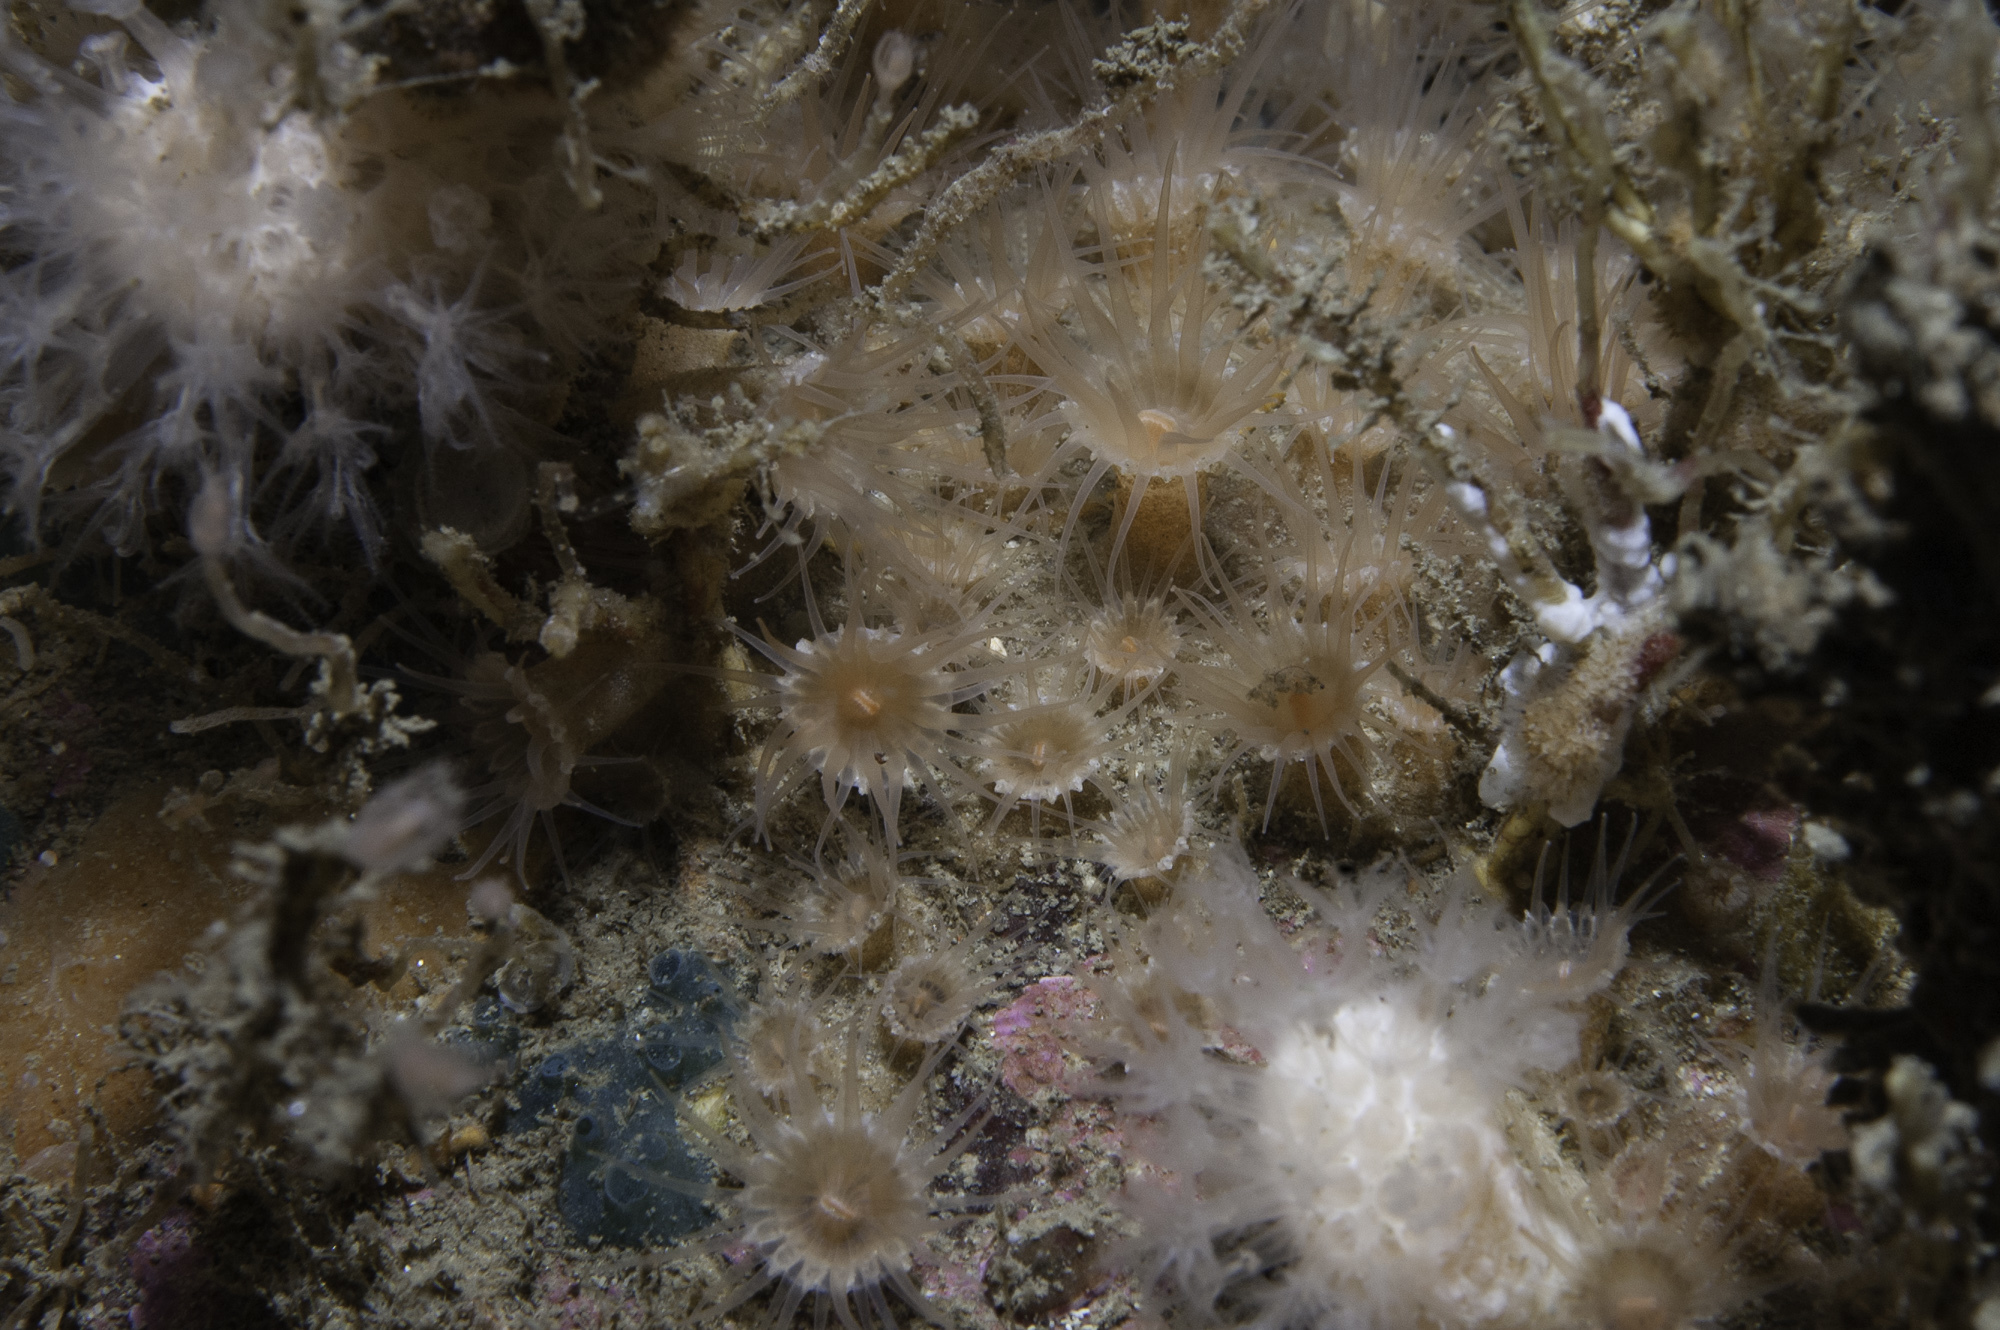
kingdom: Animalia
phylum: Cnidaria
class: Anthozoa
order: Zoantharia
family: Epizoanthidae
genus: Epizoanthus
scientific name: Epizoanthus couchii
